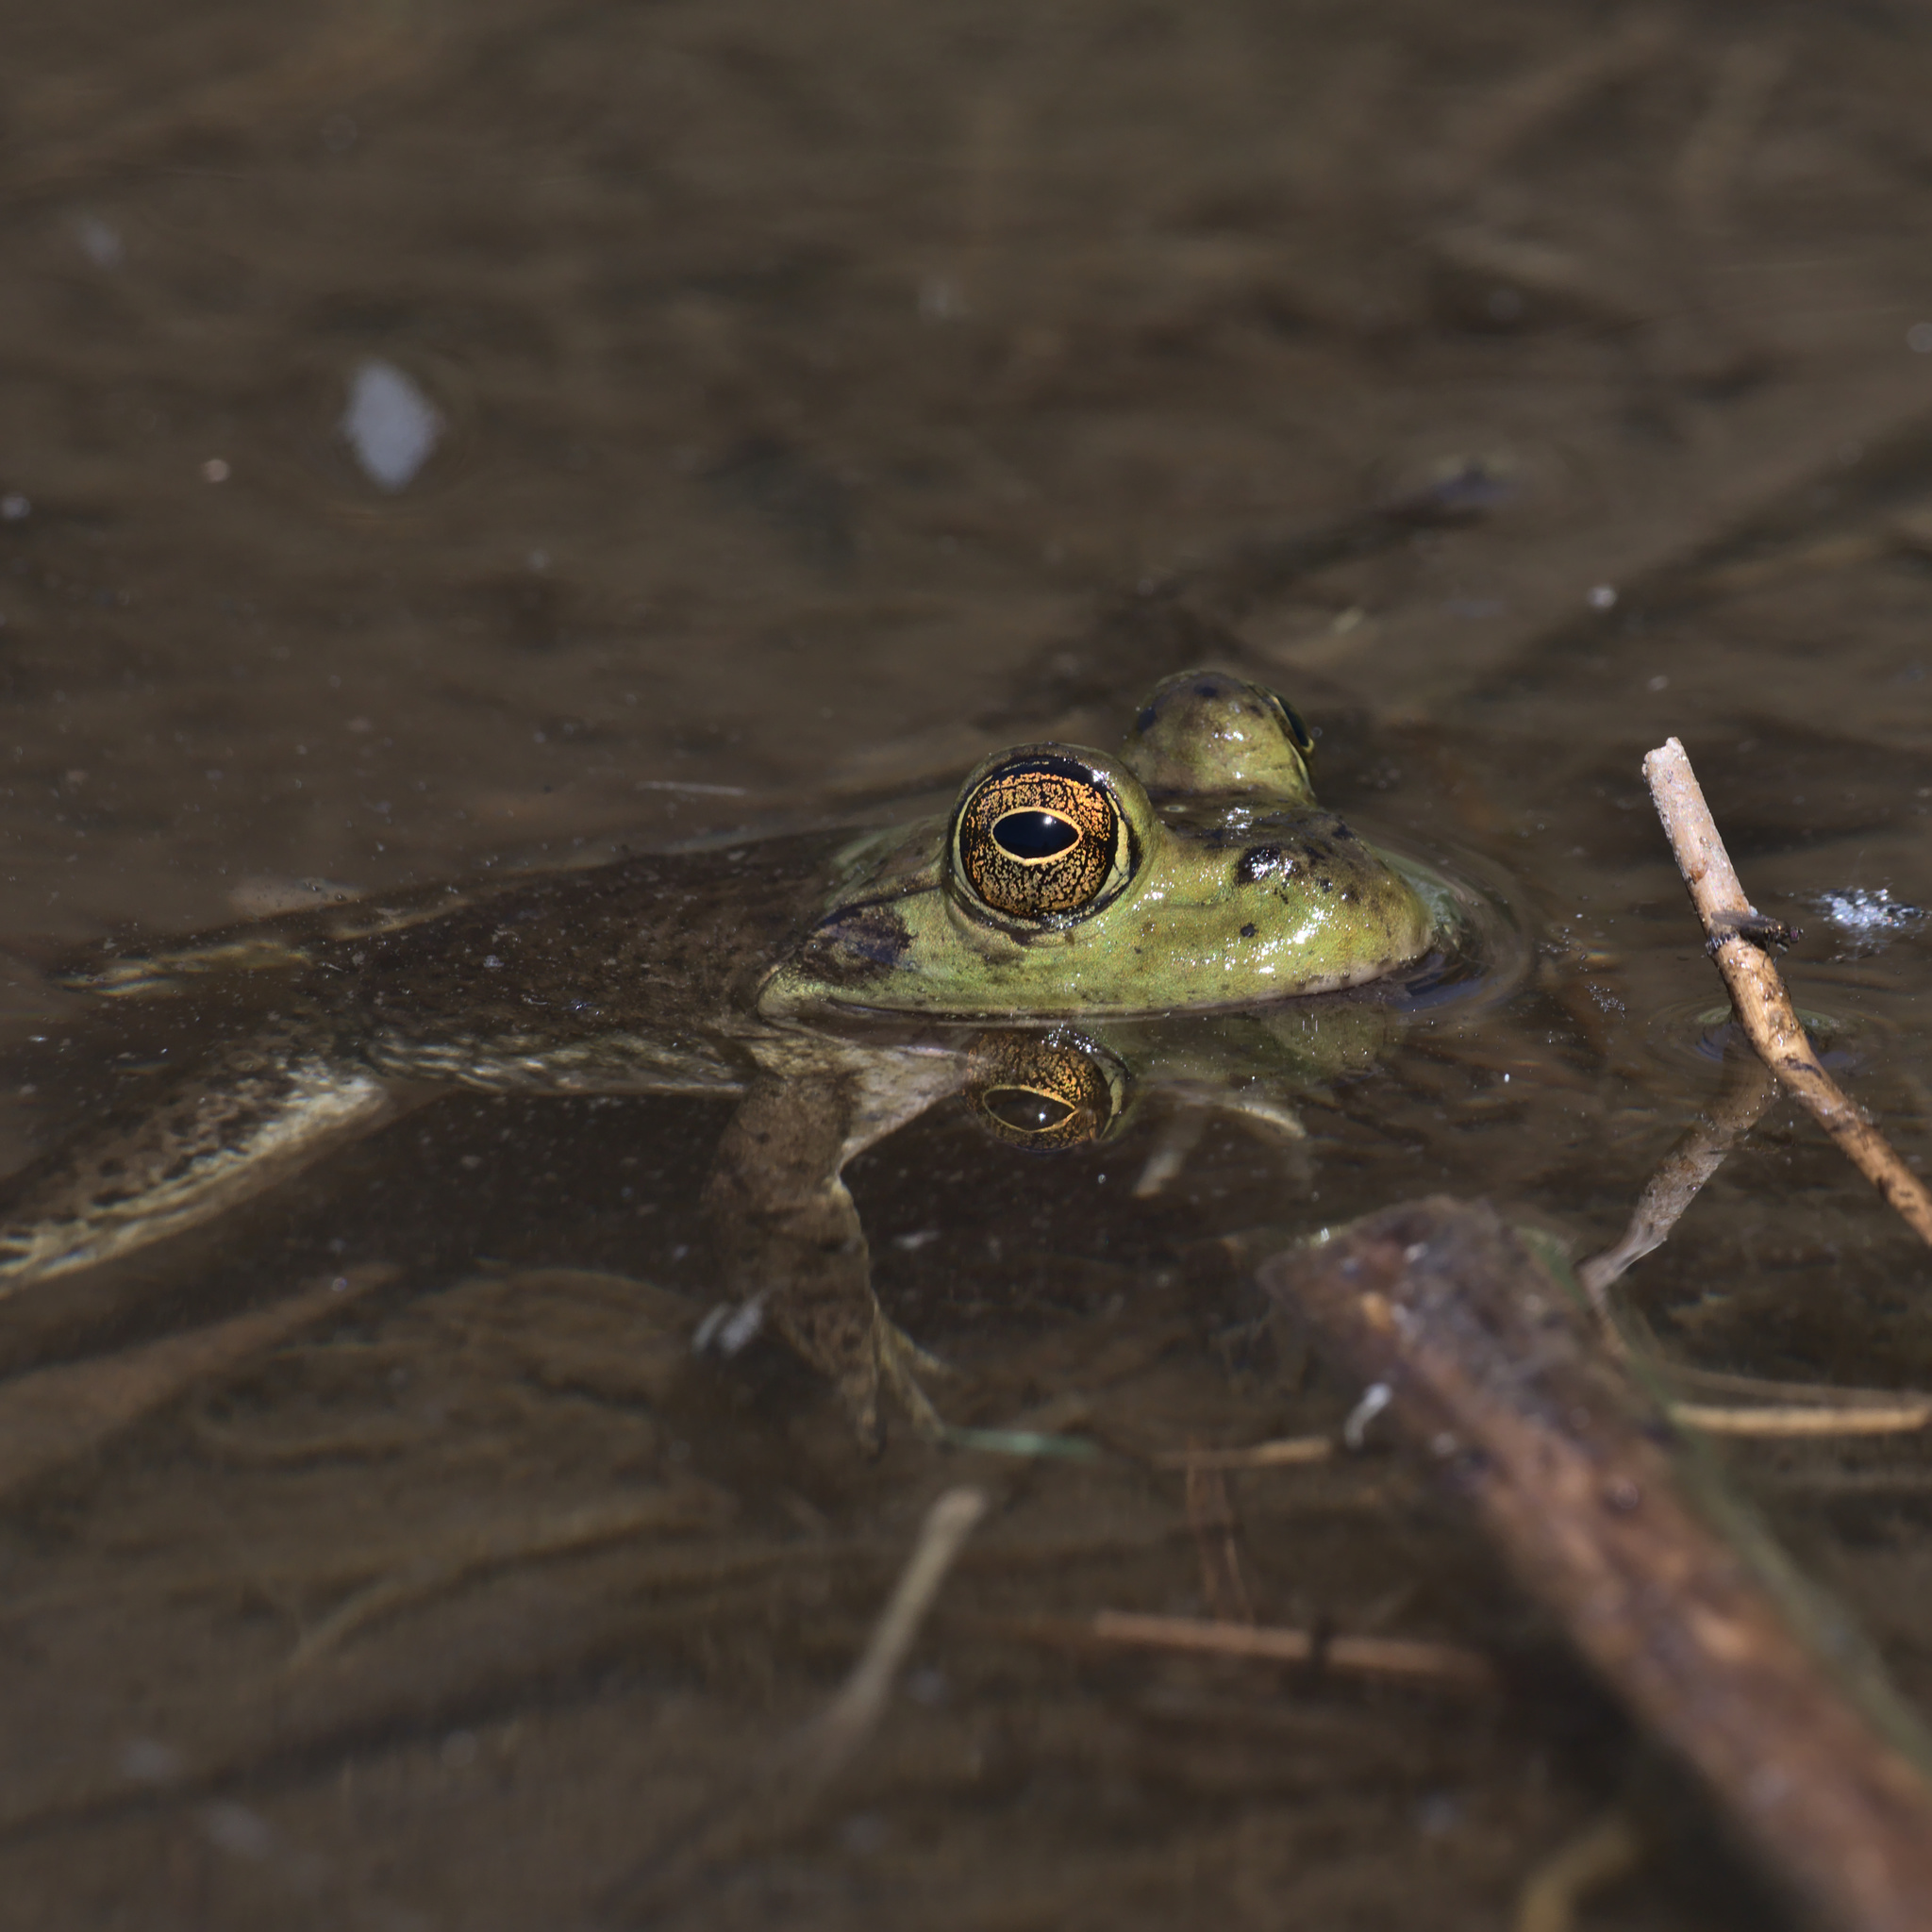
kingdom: Animalia
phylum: Chordata
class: Amphibia
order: Anura
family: Ranidae
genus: Lithobates
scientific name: Lithobates catesbeianus
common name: American bullfrog
